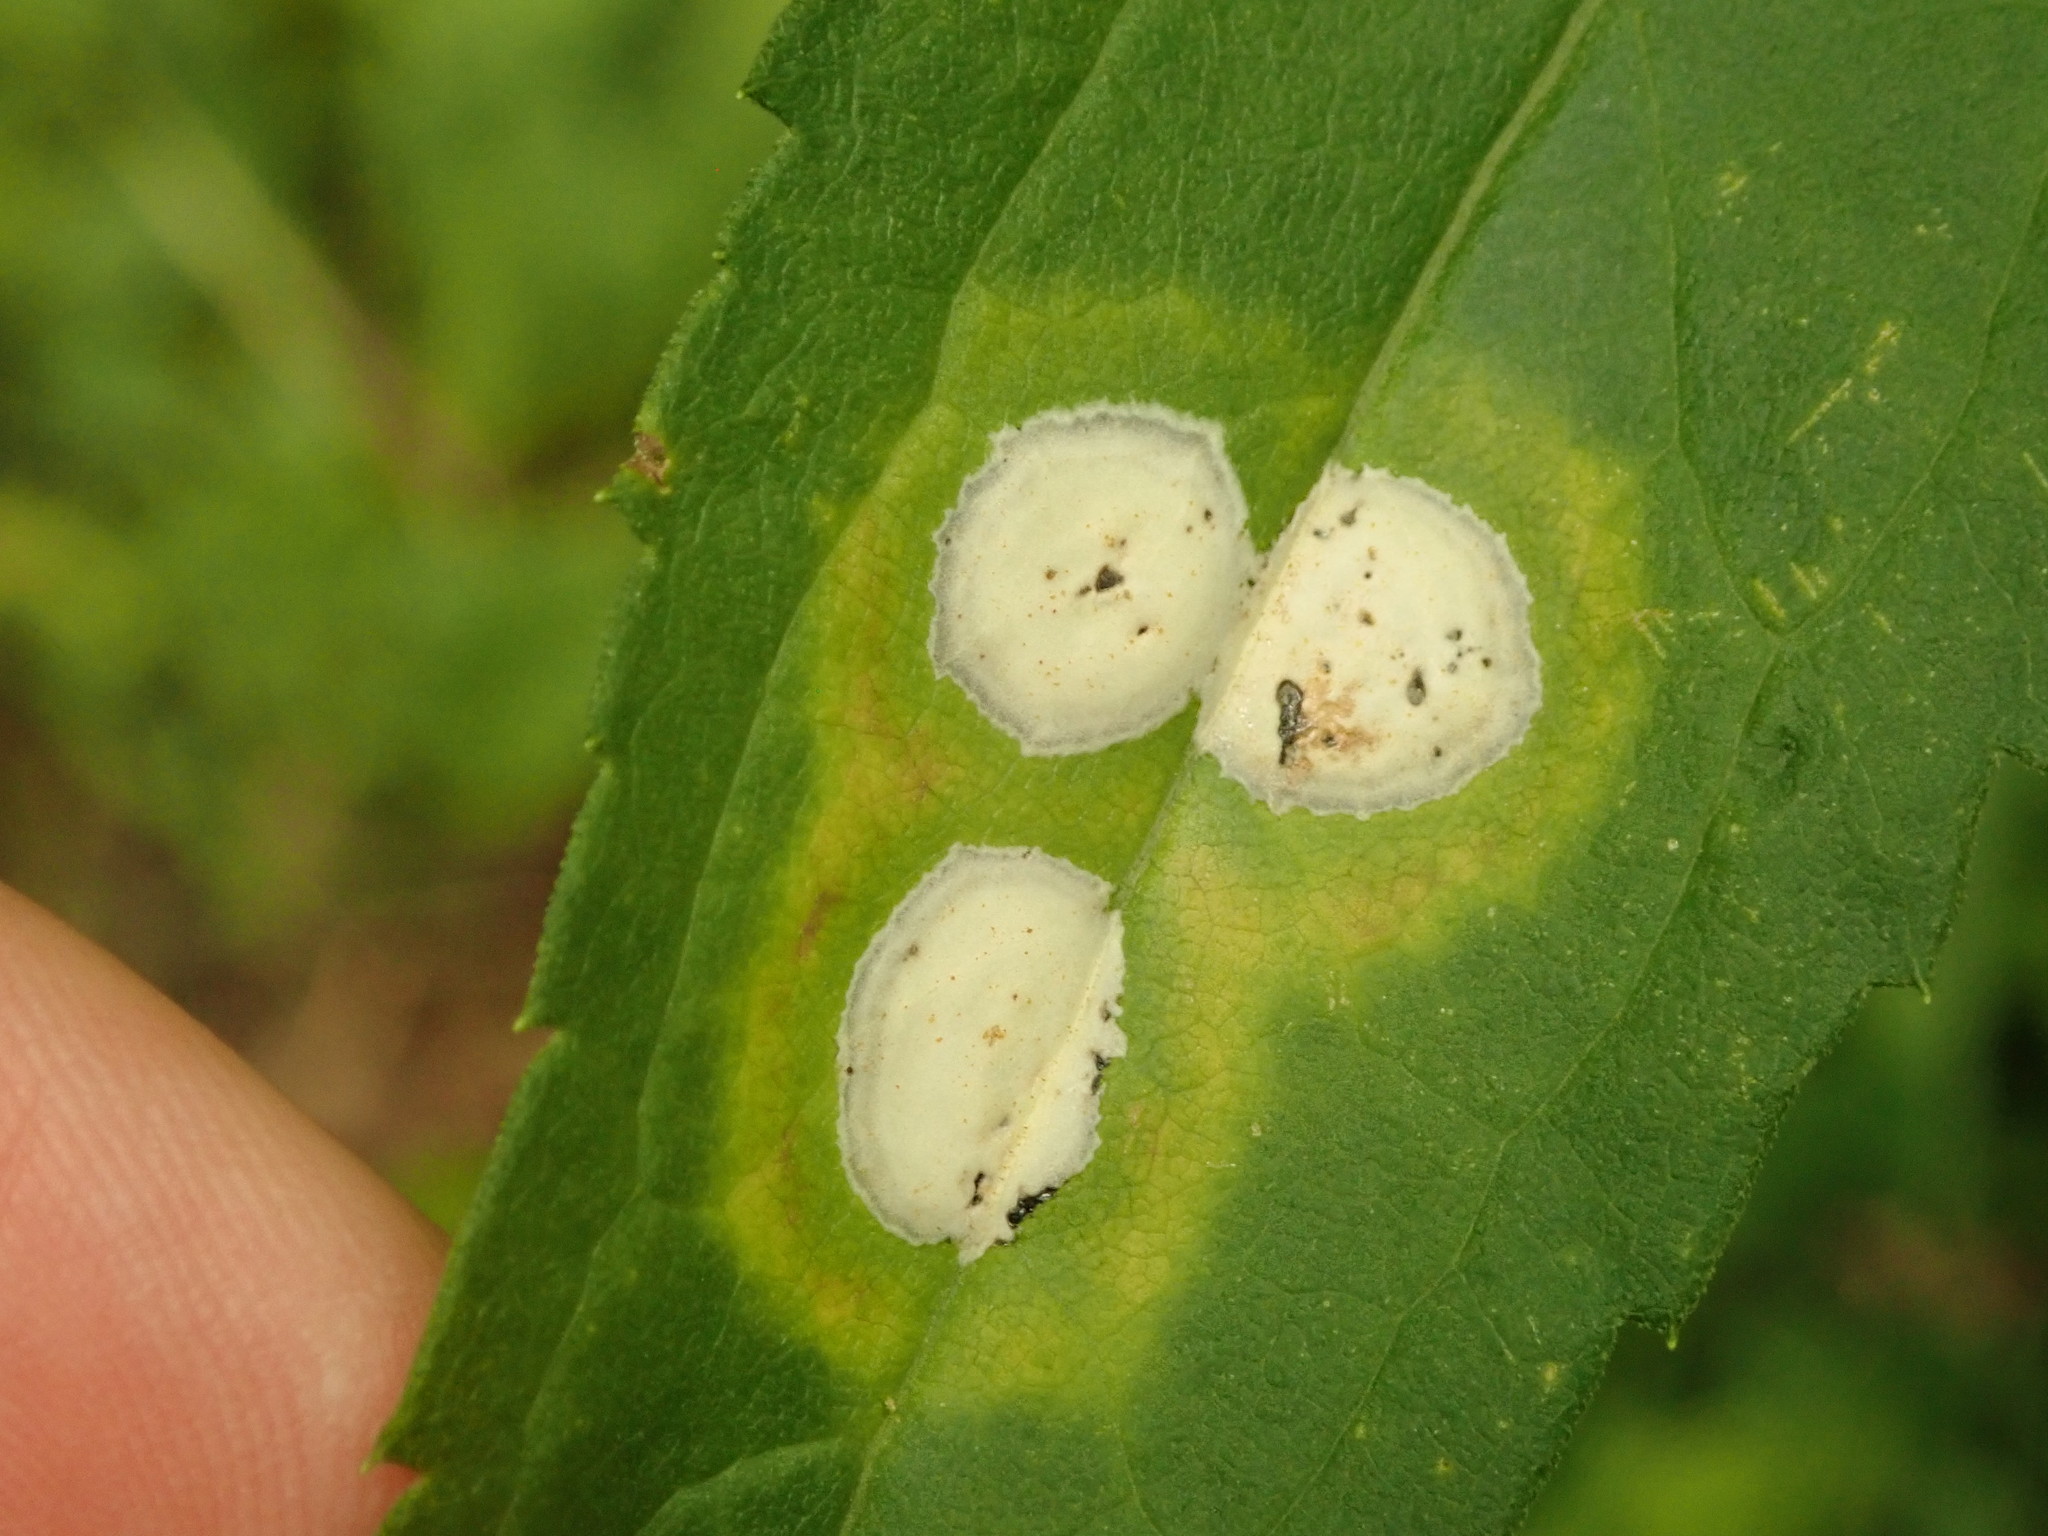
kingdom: Animalia
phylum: Arthropoda
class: Insecta
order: Diptera
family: Cecidomyiidae
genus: Asteromyia
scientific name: Asteromyia carbonifera
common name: Carbonifera goldenrod gall midge
